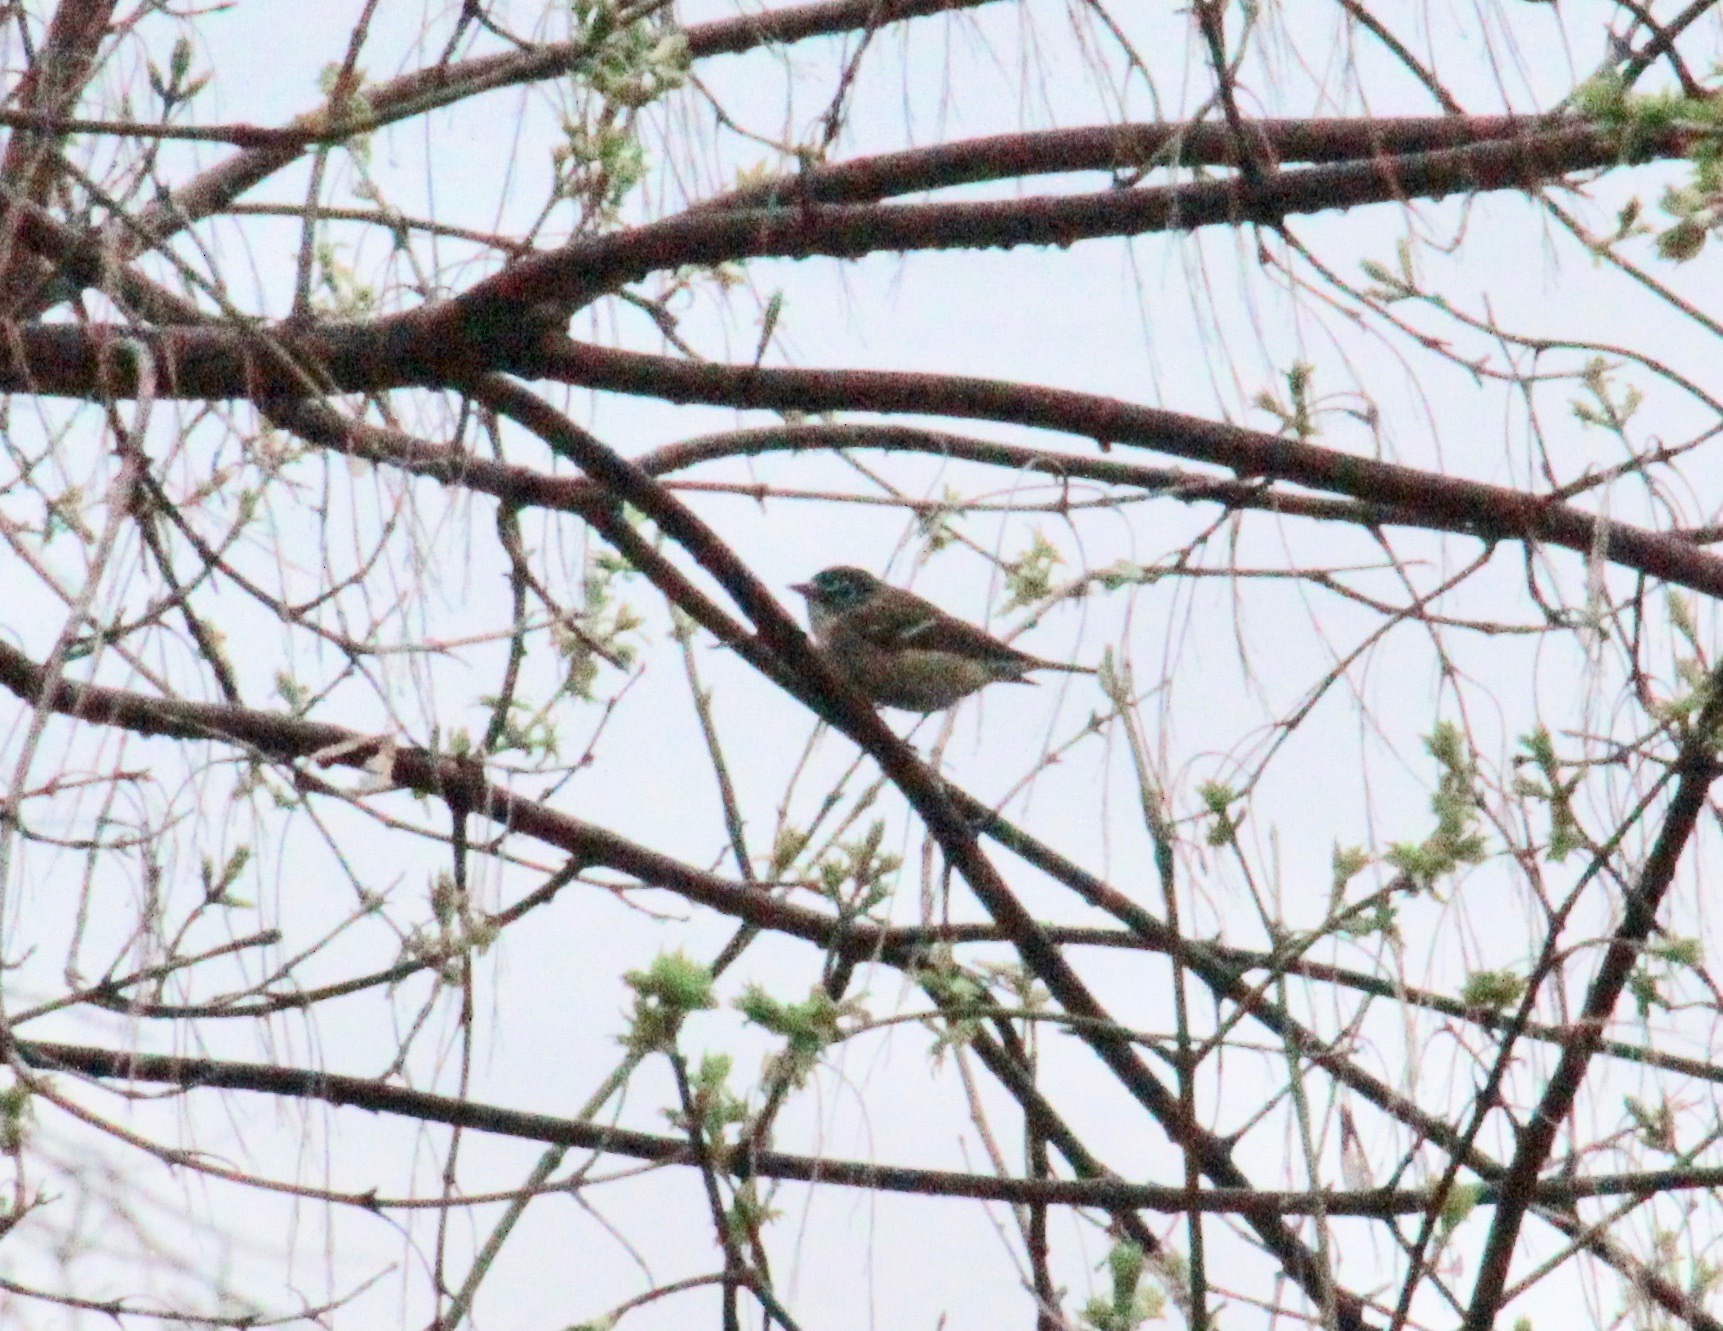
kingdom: Animalia
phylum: Chordata
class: Aves
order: Passeriformes
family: Vireonidae
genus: Vireo
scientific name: Vireo solitarius
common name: Blue-headed vireo
